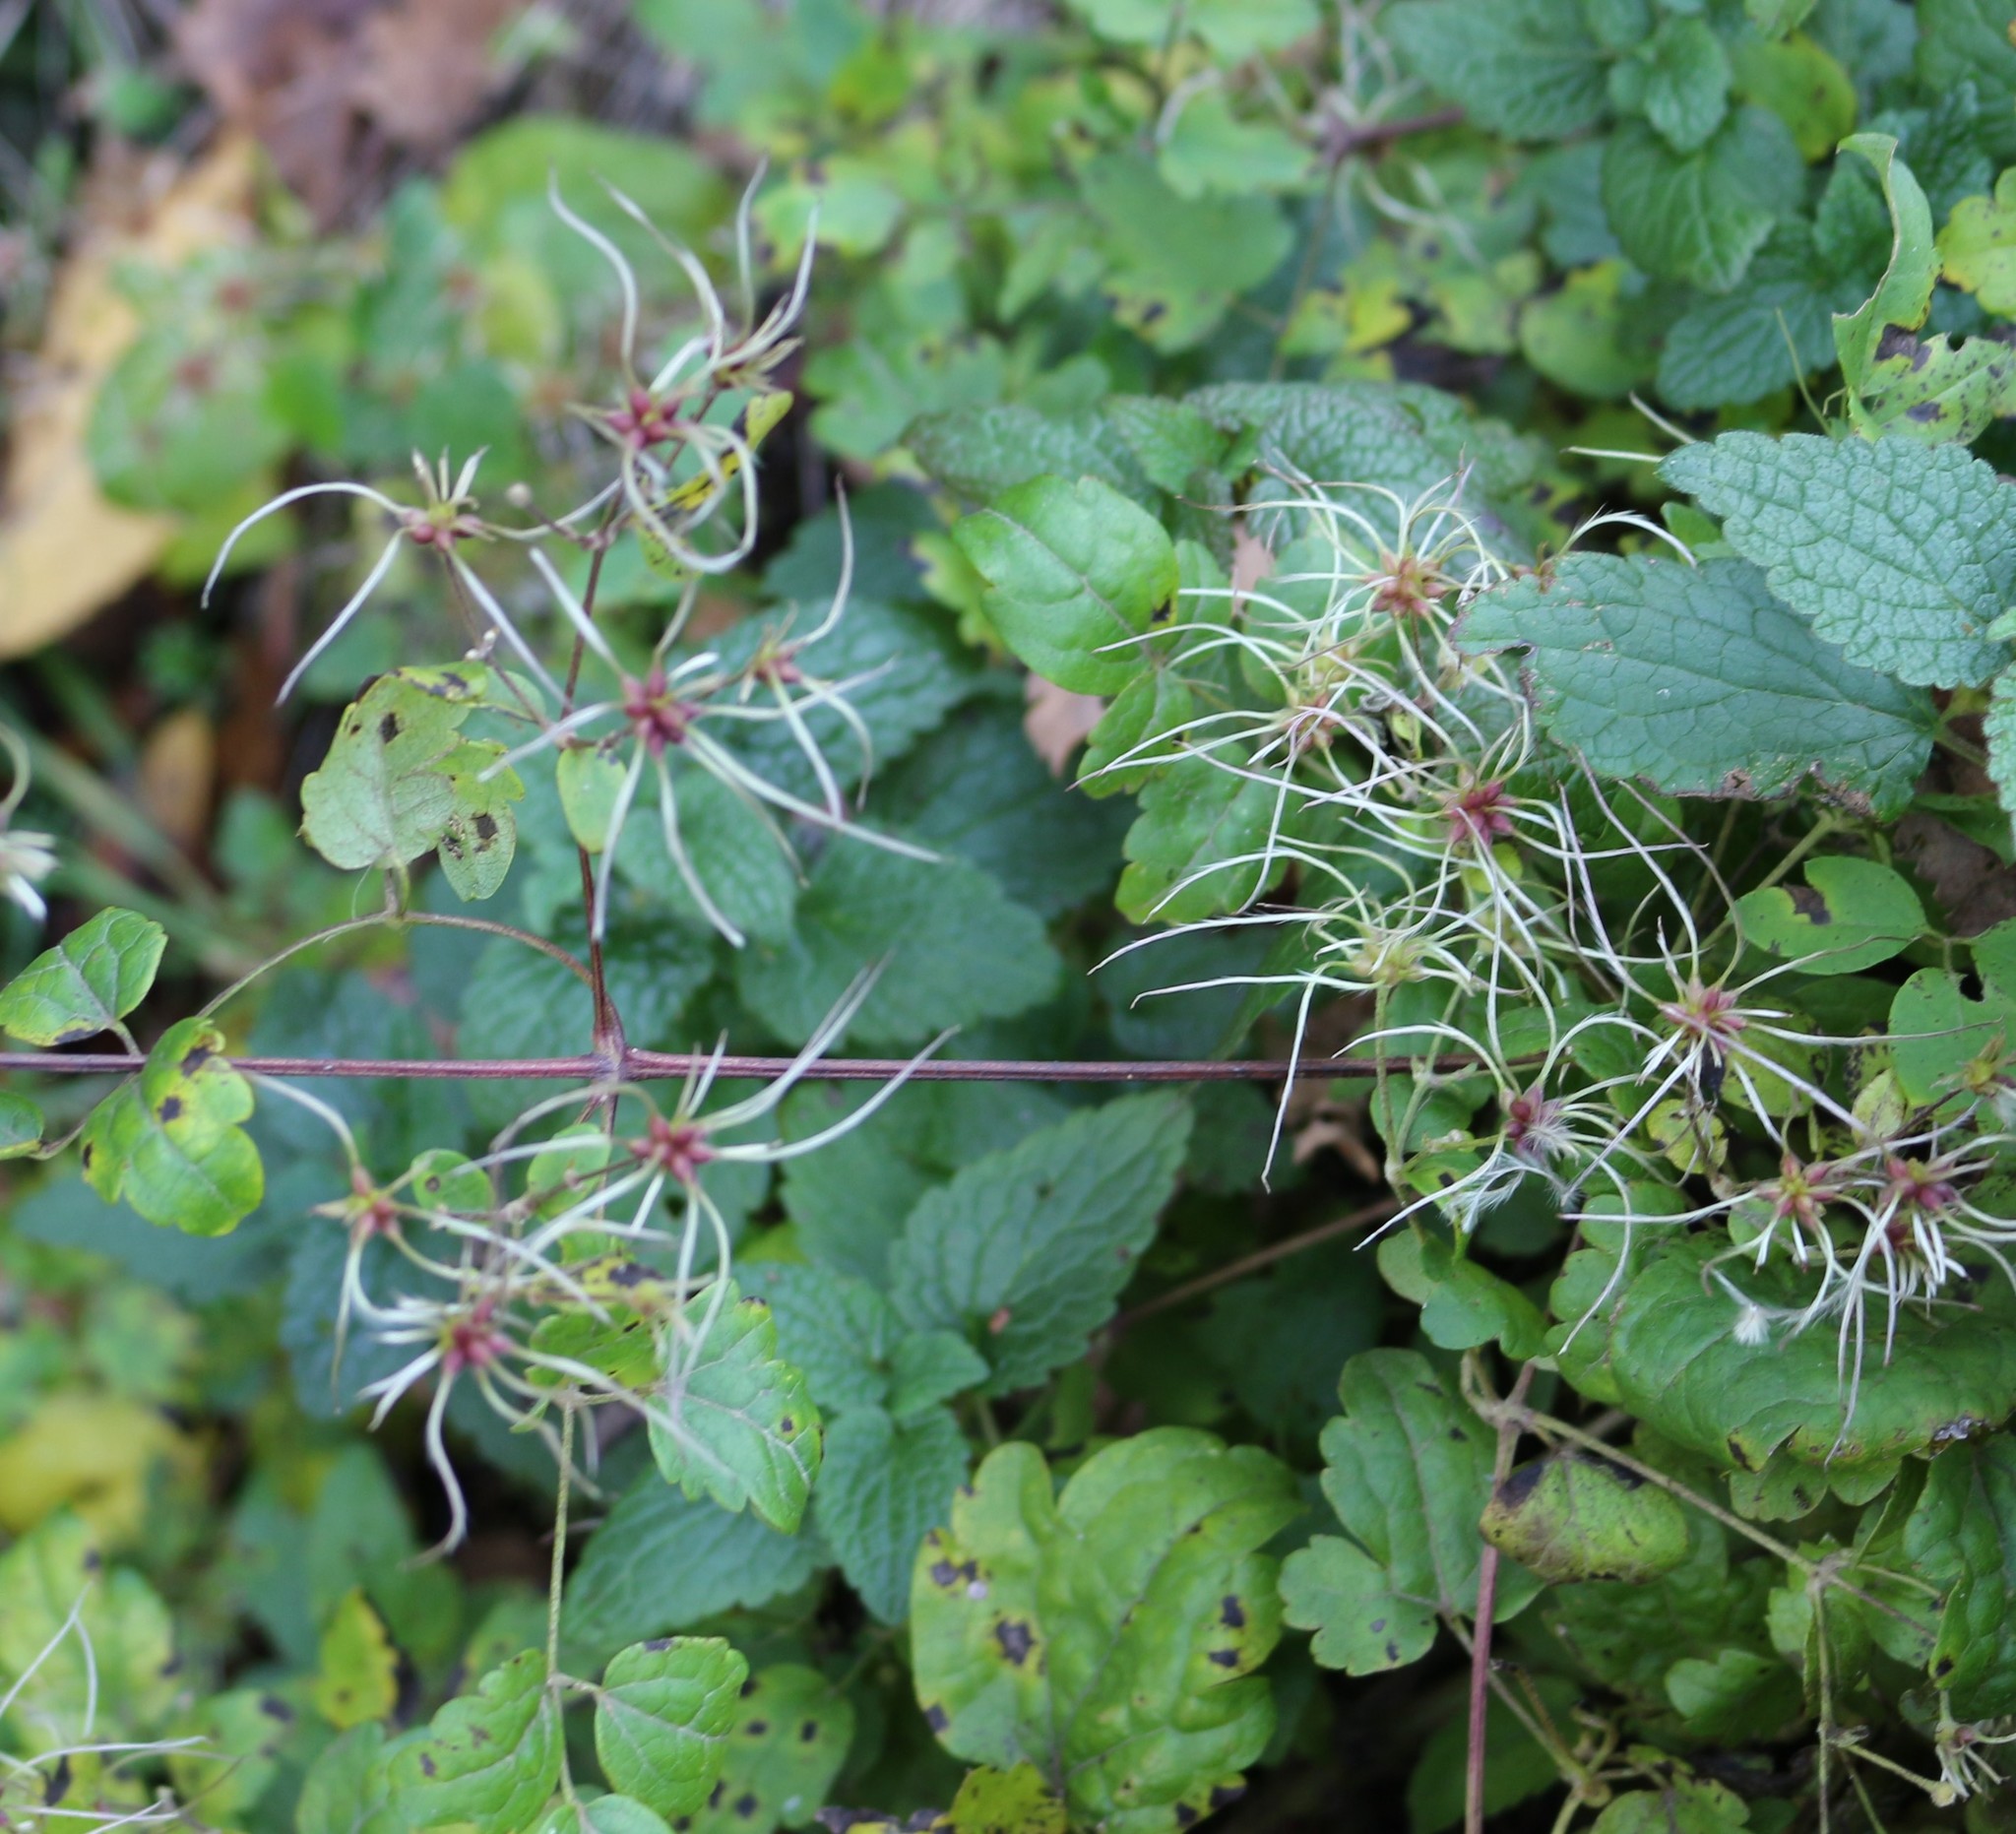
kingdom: Plantae
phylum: Tracheophyta
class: Magnoliopsida
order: Ranunculales
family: Ranunculaceae
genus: Clematis
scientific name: Clematis vitalba
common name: Evergreen clematis
